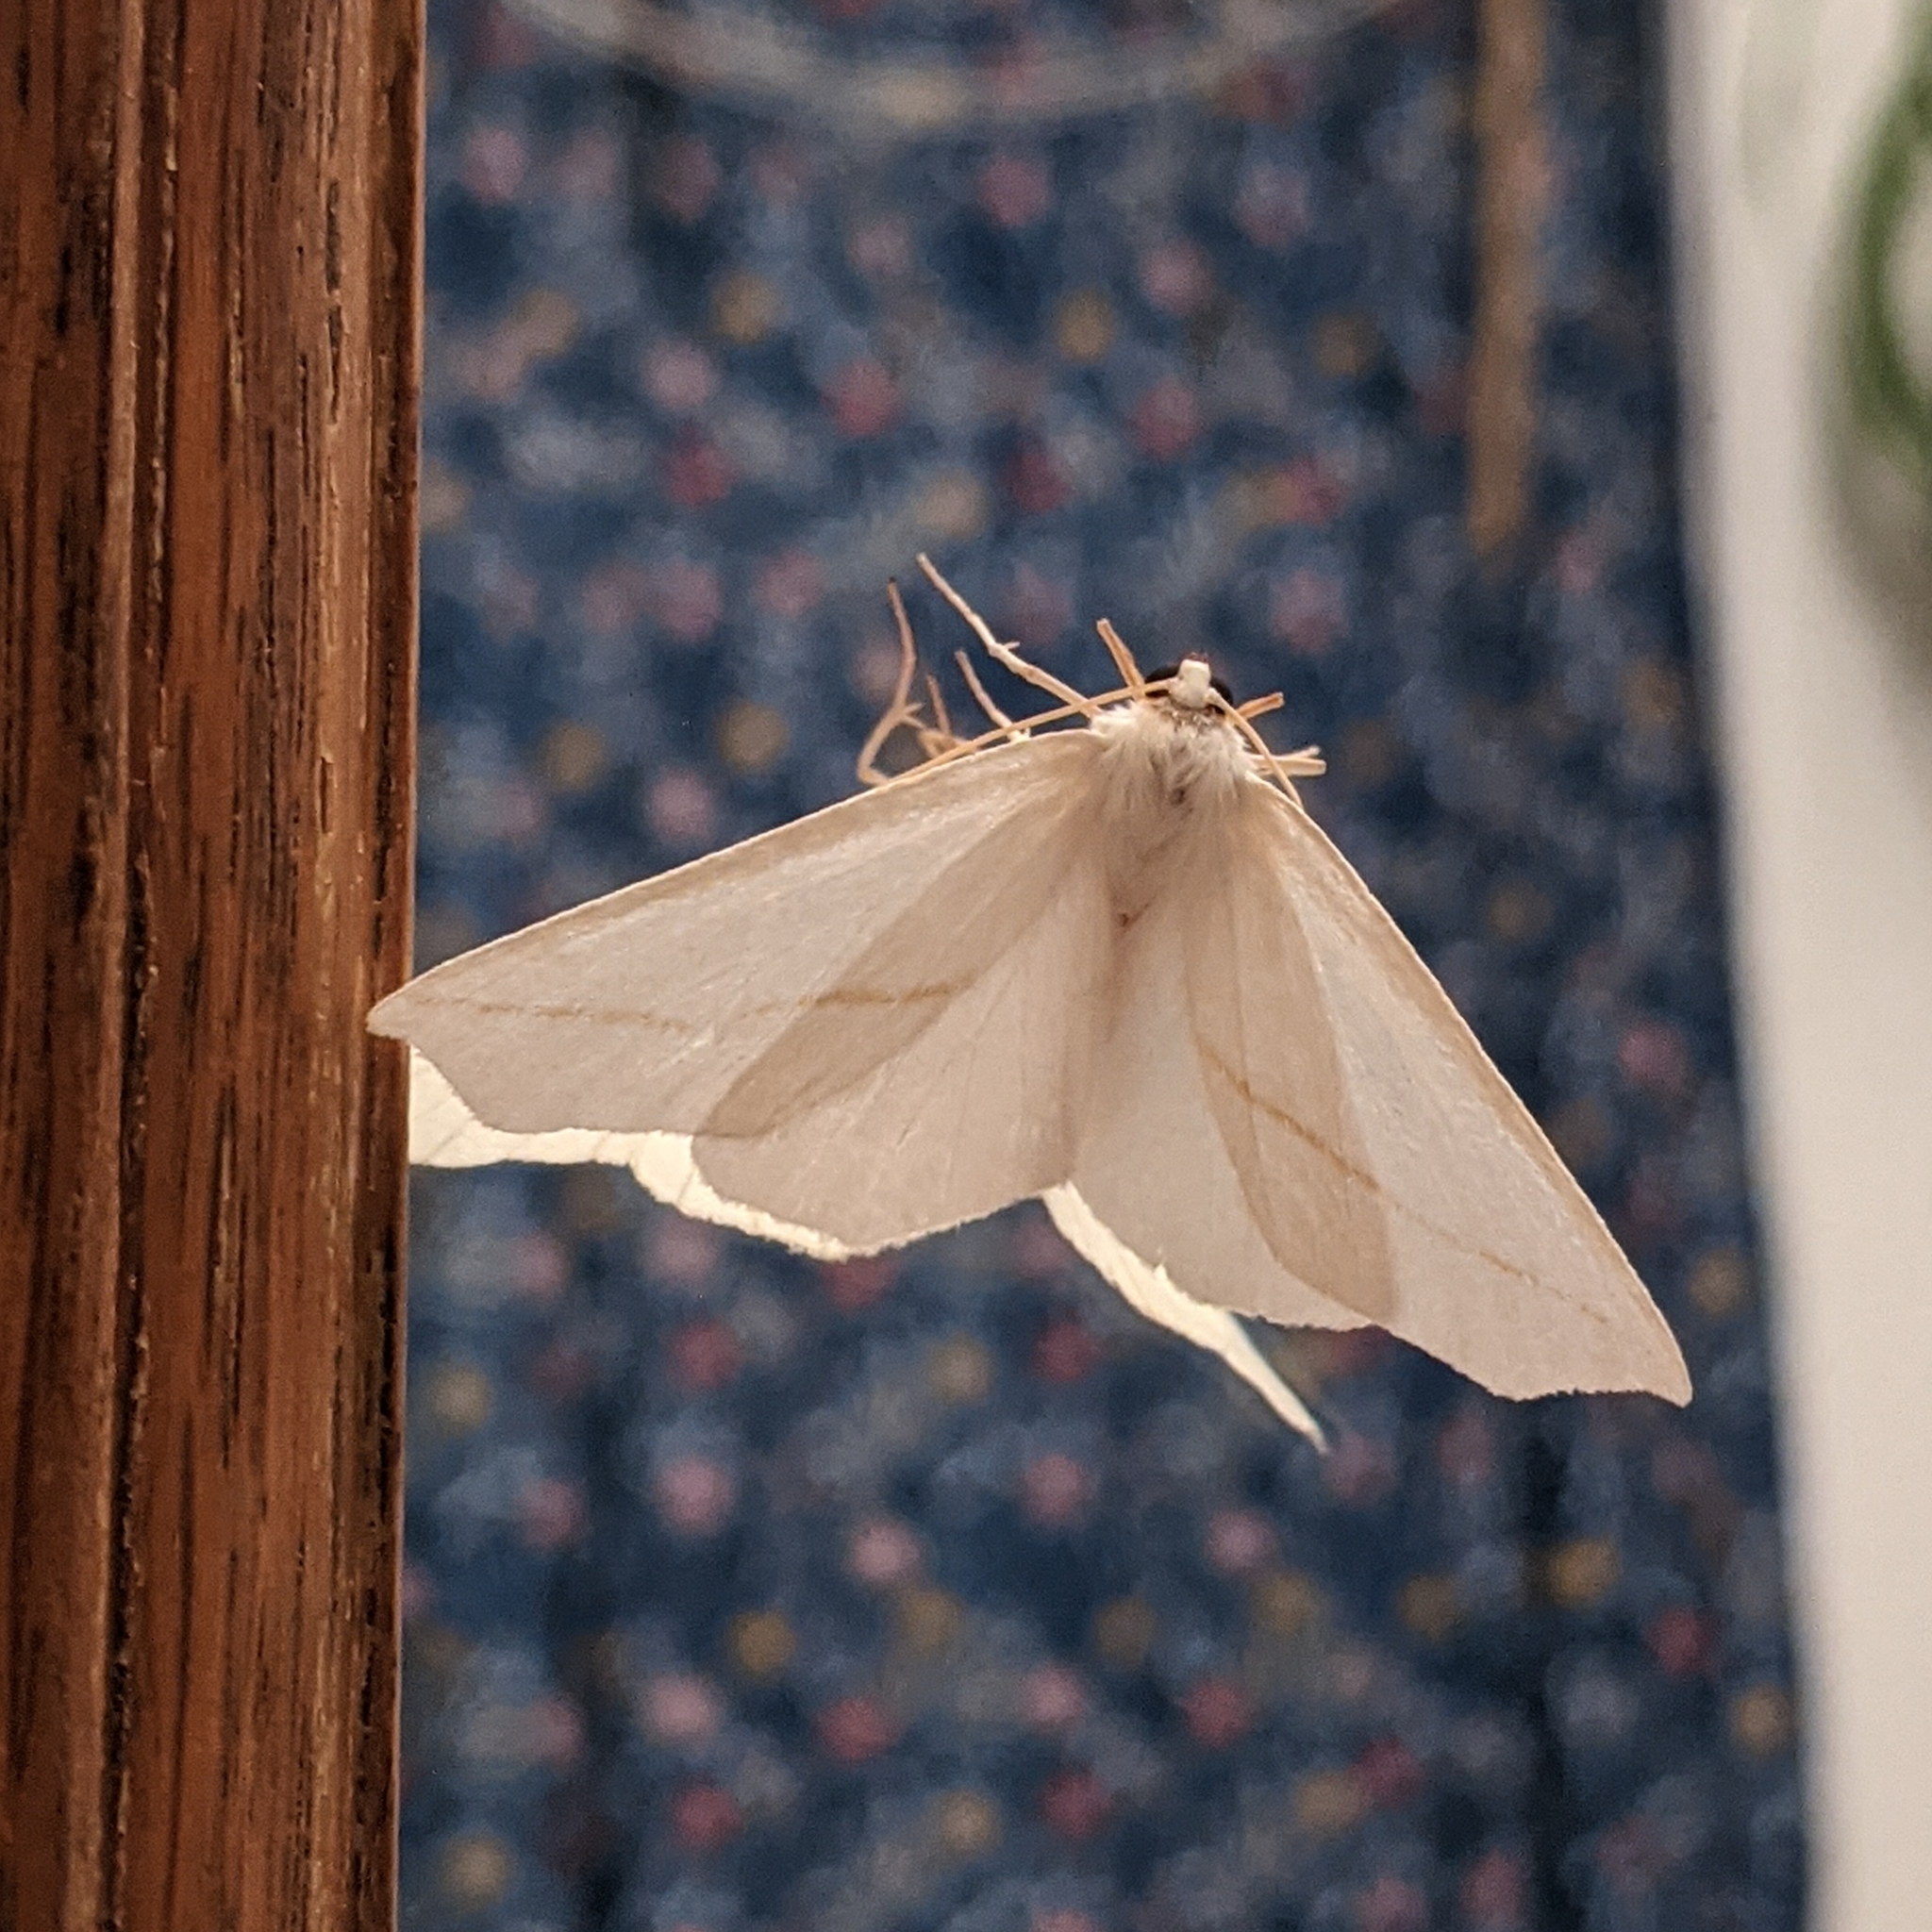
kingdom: Animalia
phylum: Arthropoda
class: Insecta
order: Lepidoptera
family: Geometridae
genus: Tetracis
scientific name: Tetracis cachexiata
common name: White slant-line
